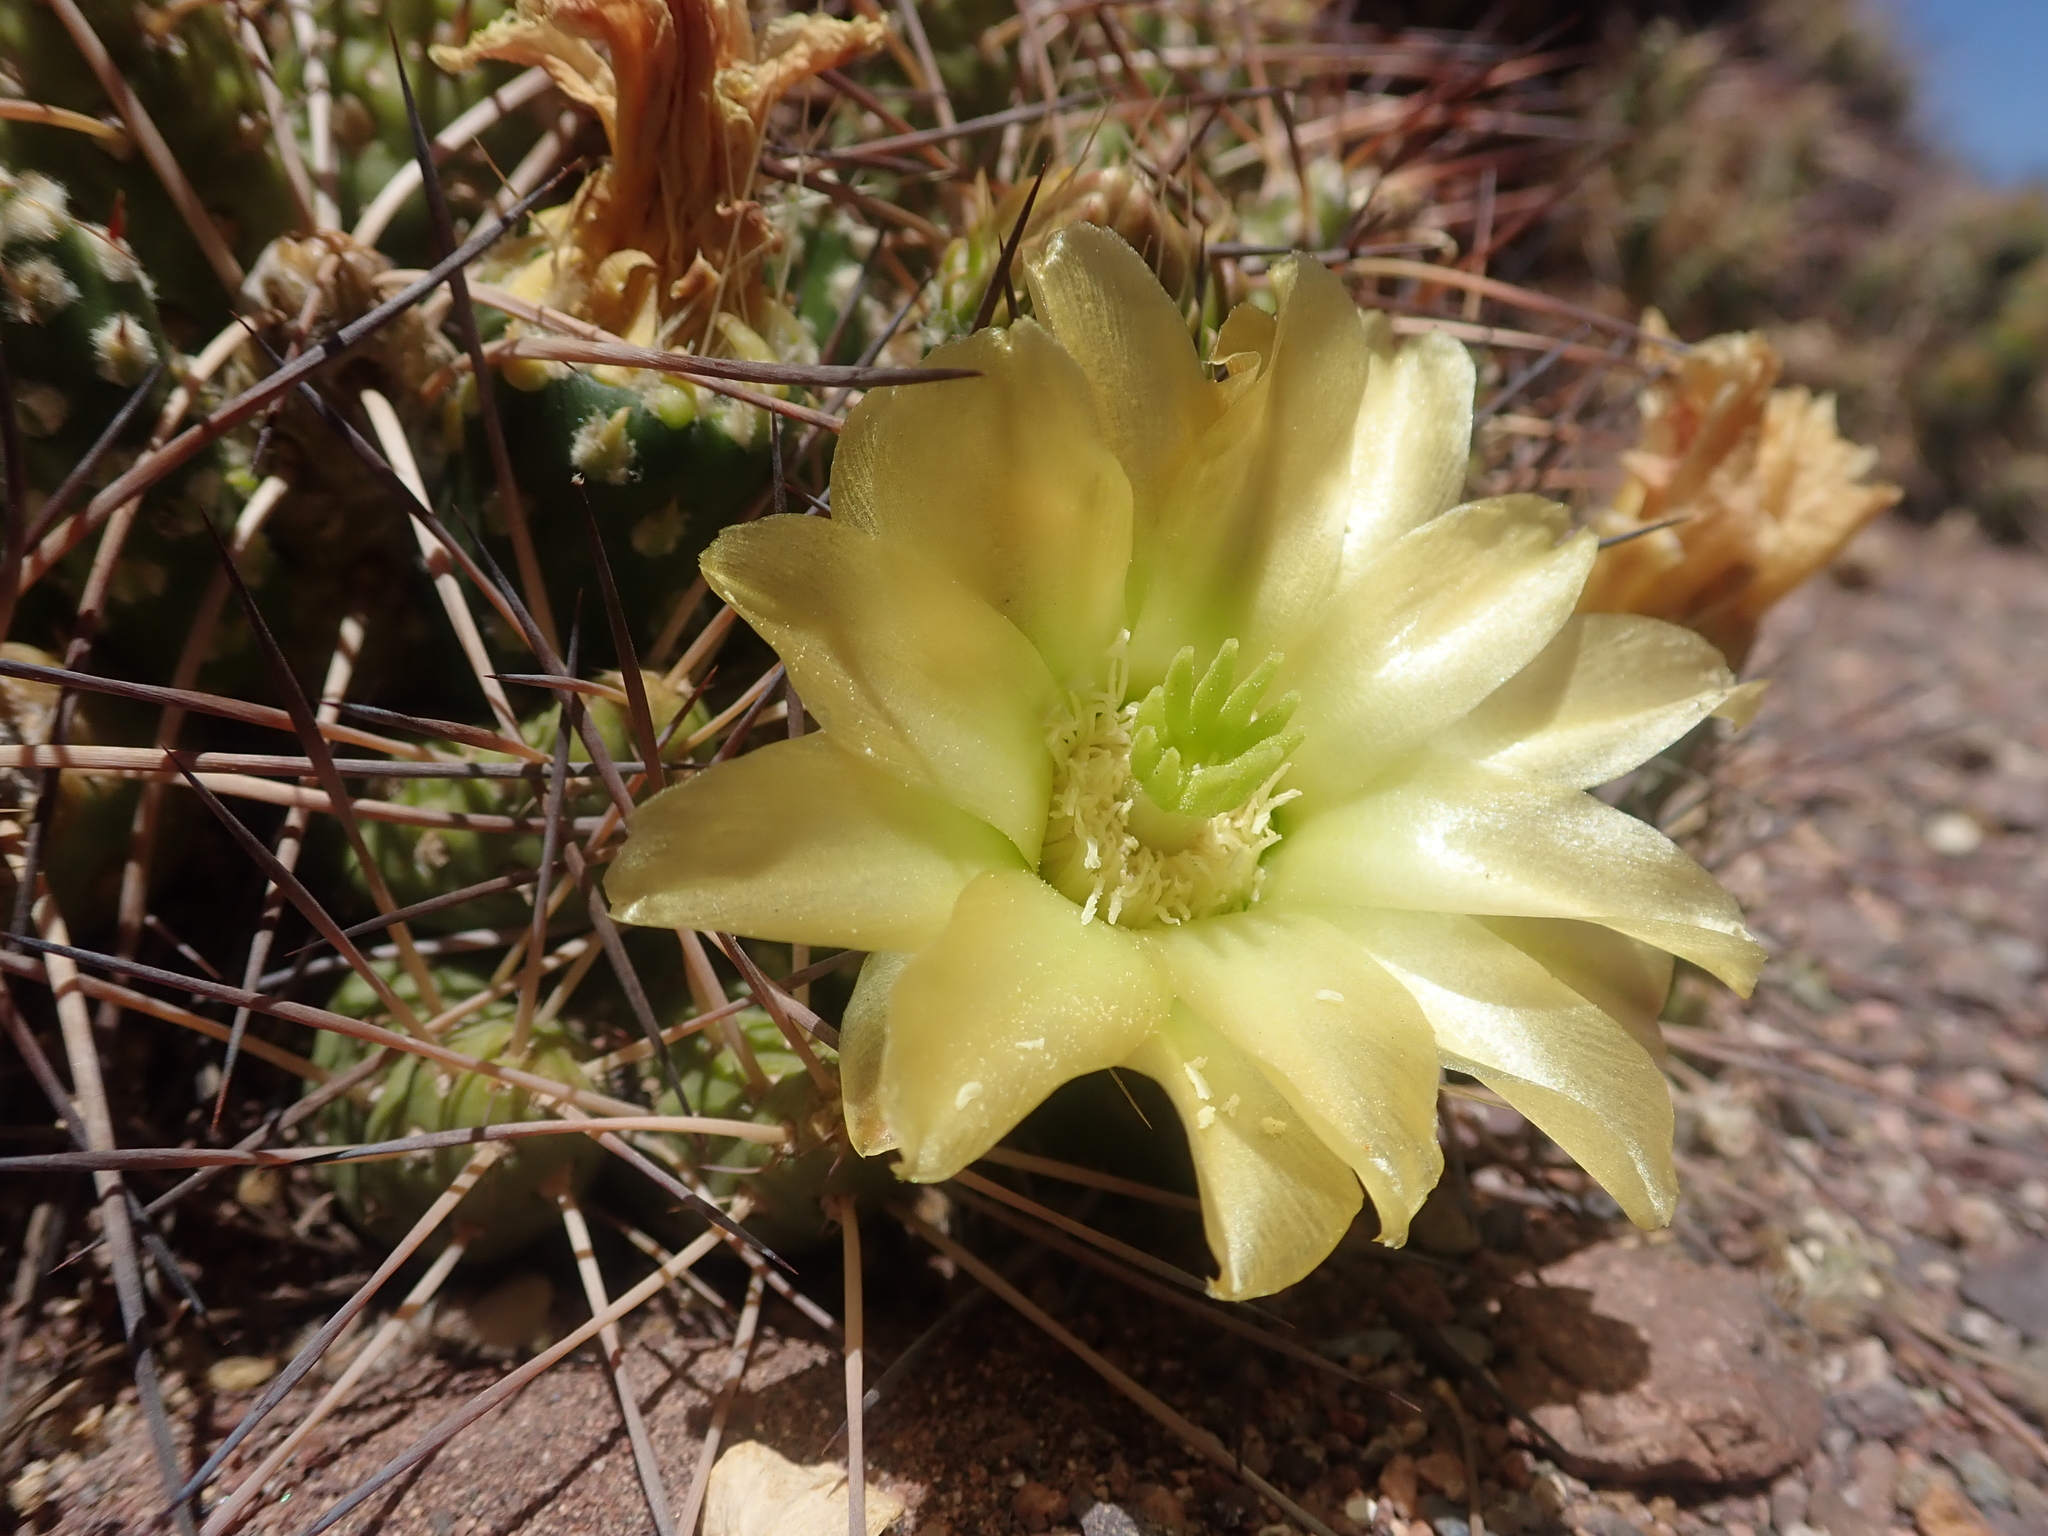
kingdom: Plantae
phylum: Tracheophyta
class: Magnoliopsida
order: Caryophyllales
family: Cactaceae
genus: Maihueniopsis
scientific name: Maihueniopsis camachoi
